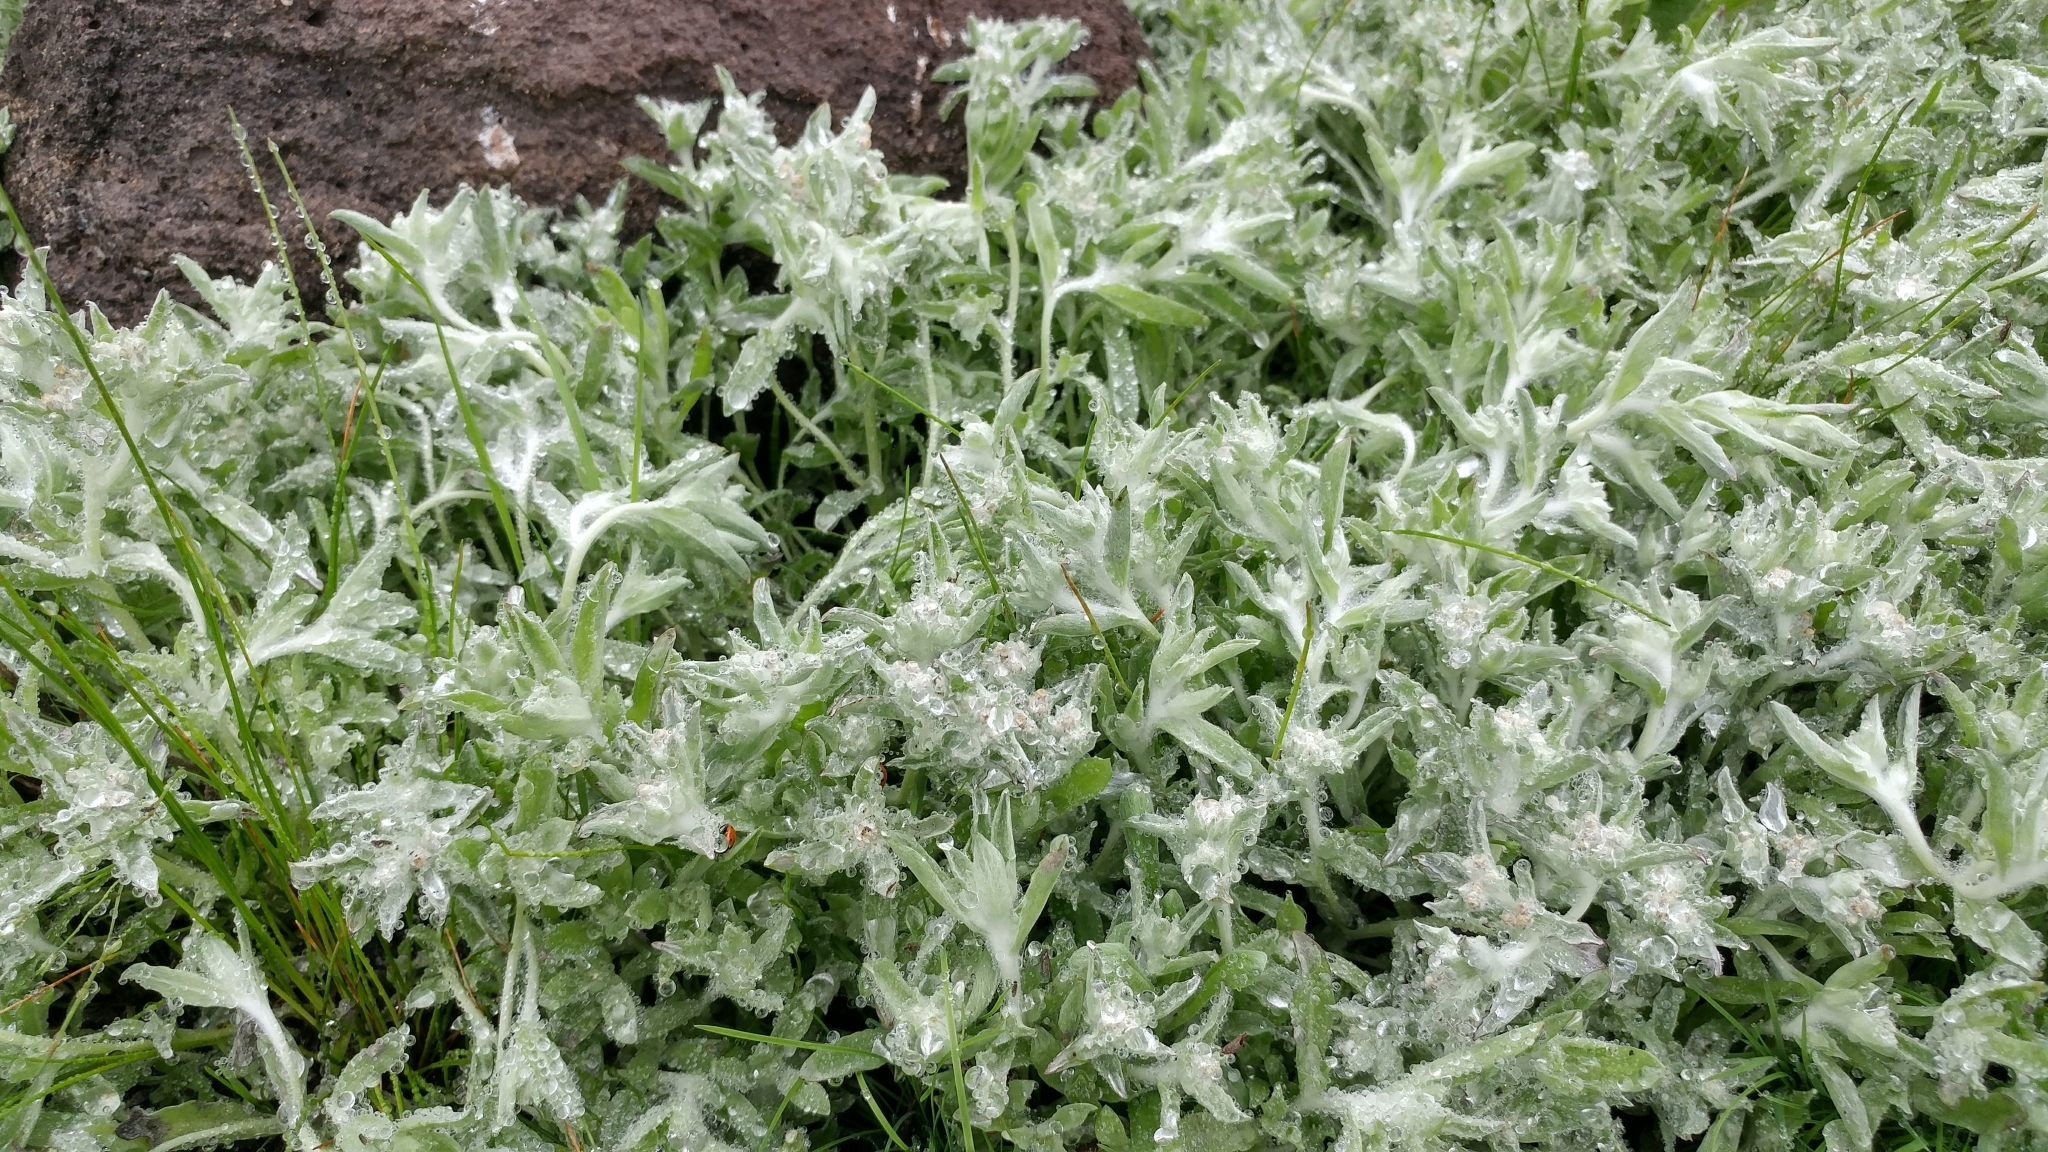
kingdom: Plantae
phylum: Tracheophyta
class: Magnoliopsida
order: Asterales
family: Asteraceae
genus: Gnaphalium
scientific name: Gnaphalium palustre
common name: Western marsh cudweed
